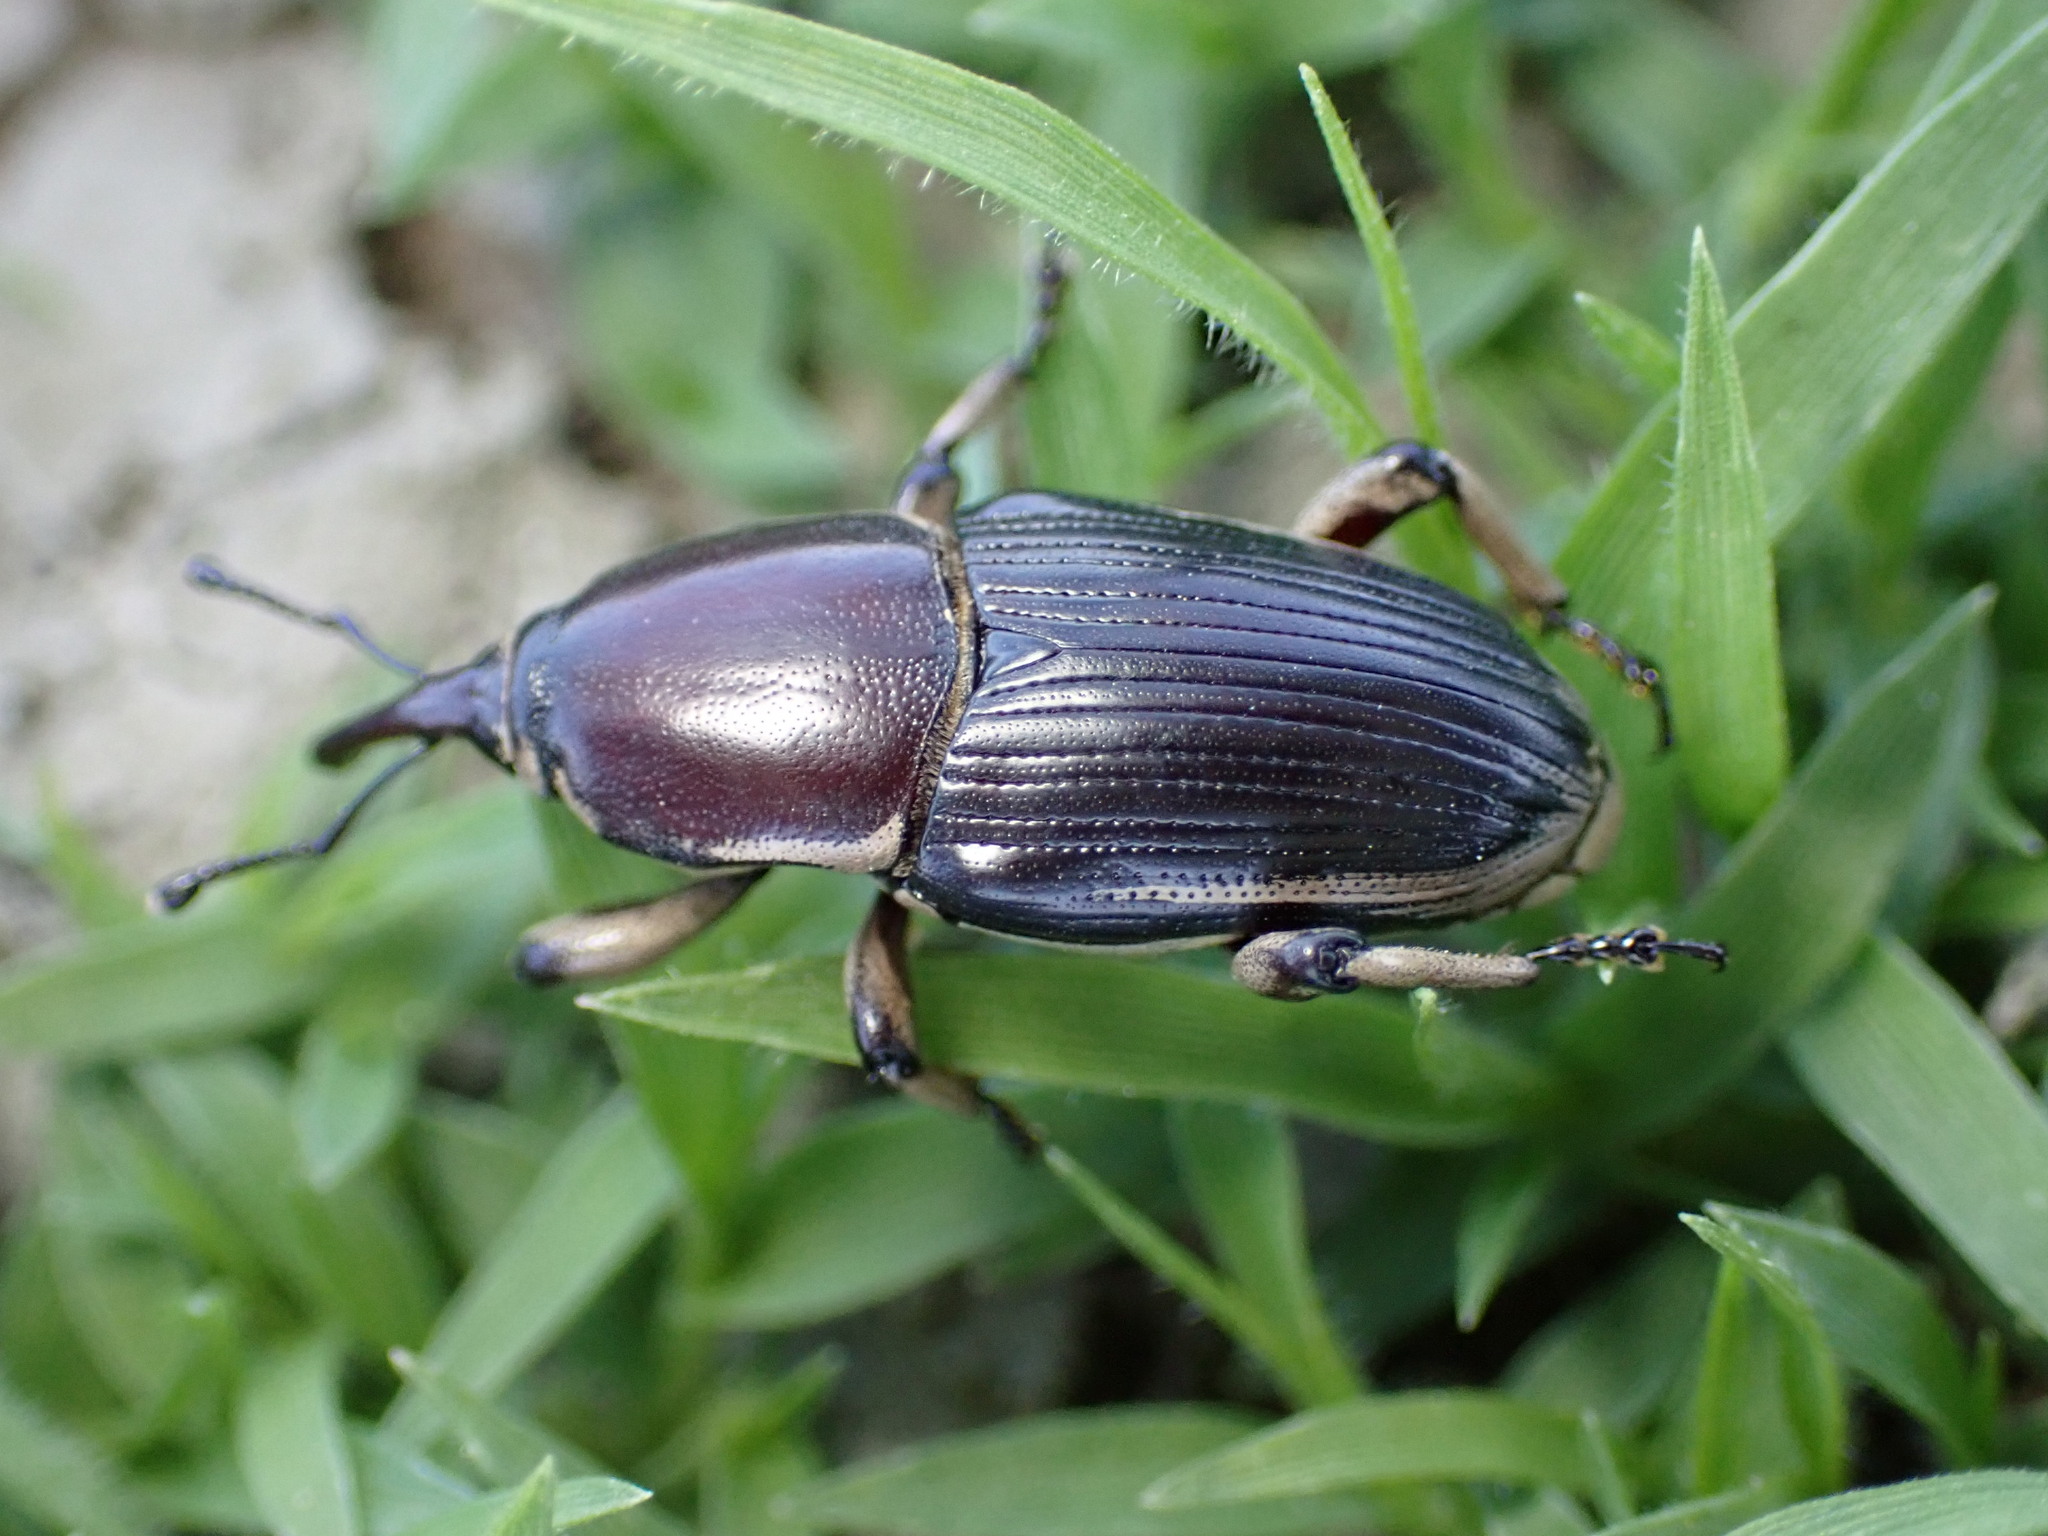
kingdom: Animalia
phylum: Arthropoda
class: Insecta
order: Coleoptera
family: Dryophthoridae
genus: Sphenophorus
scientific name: Sphenophorus aequalis
